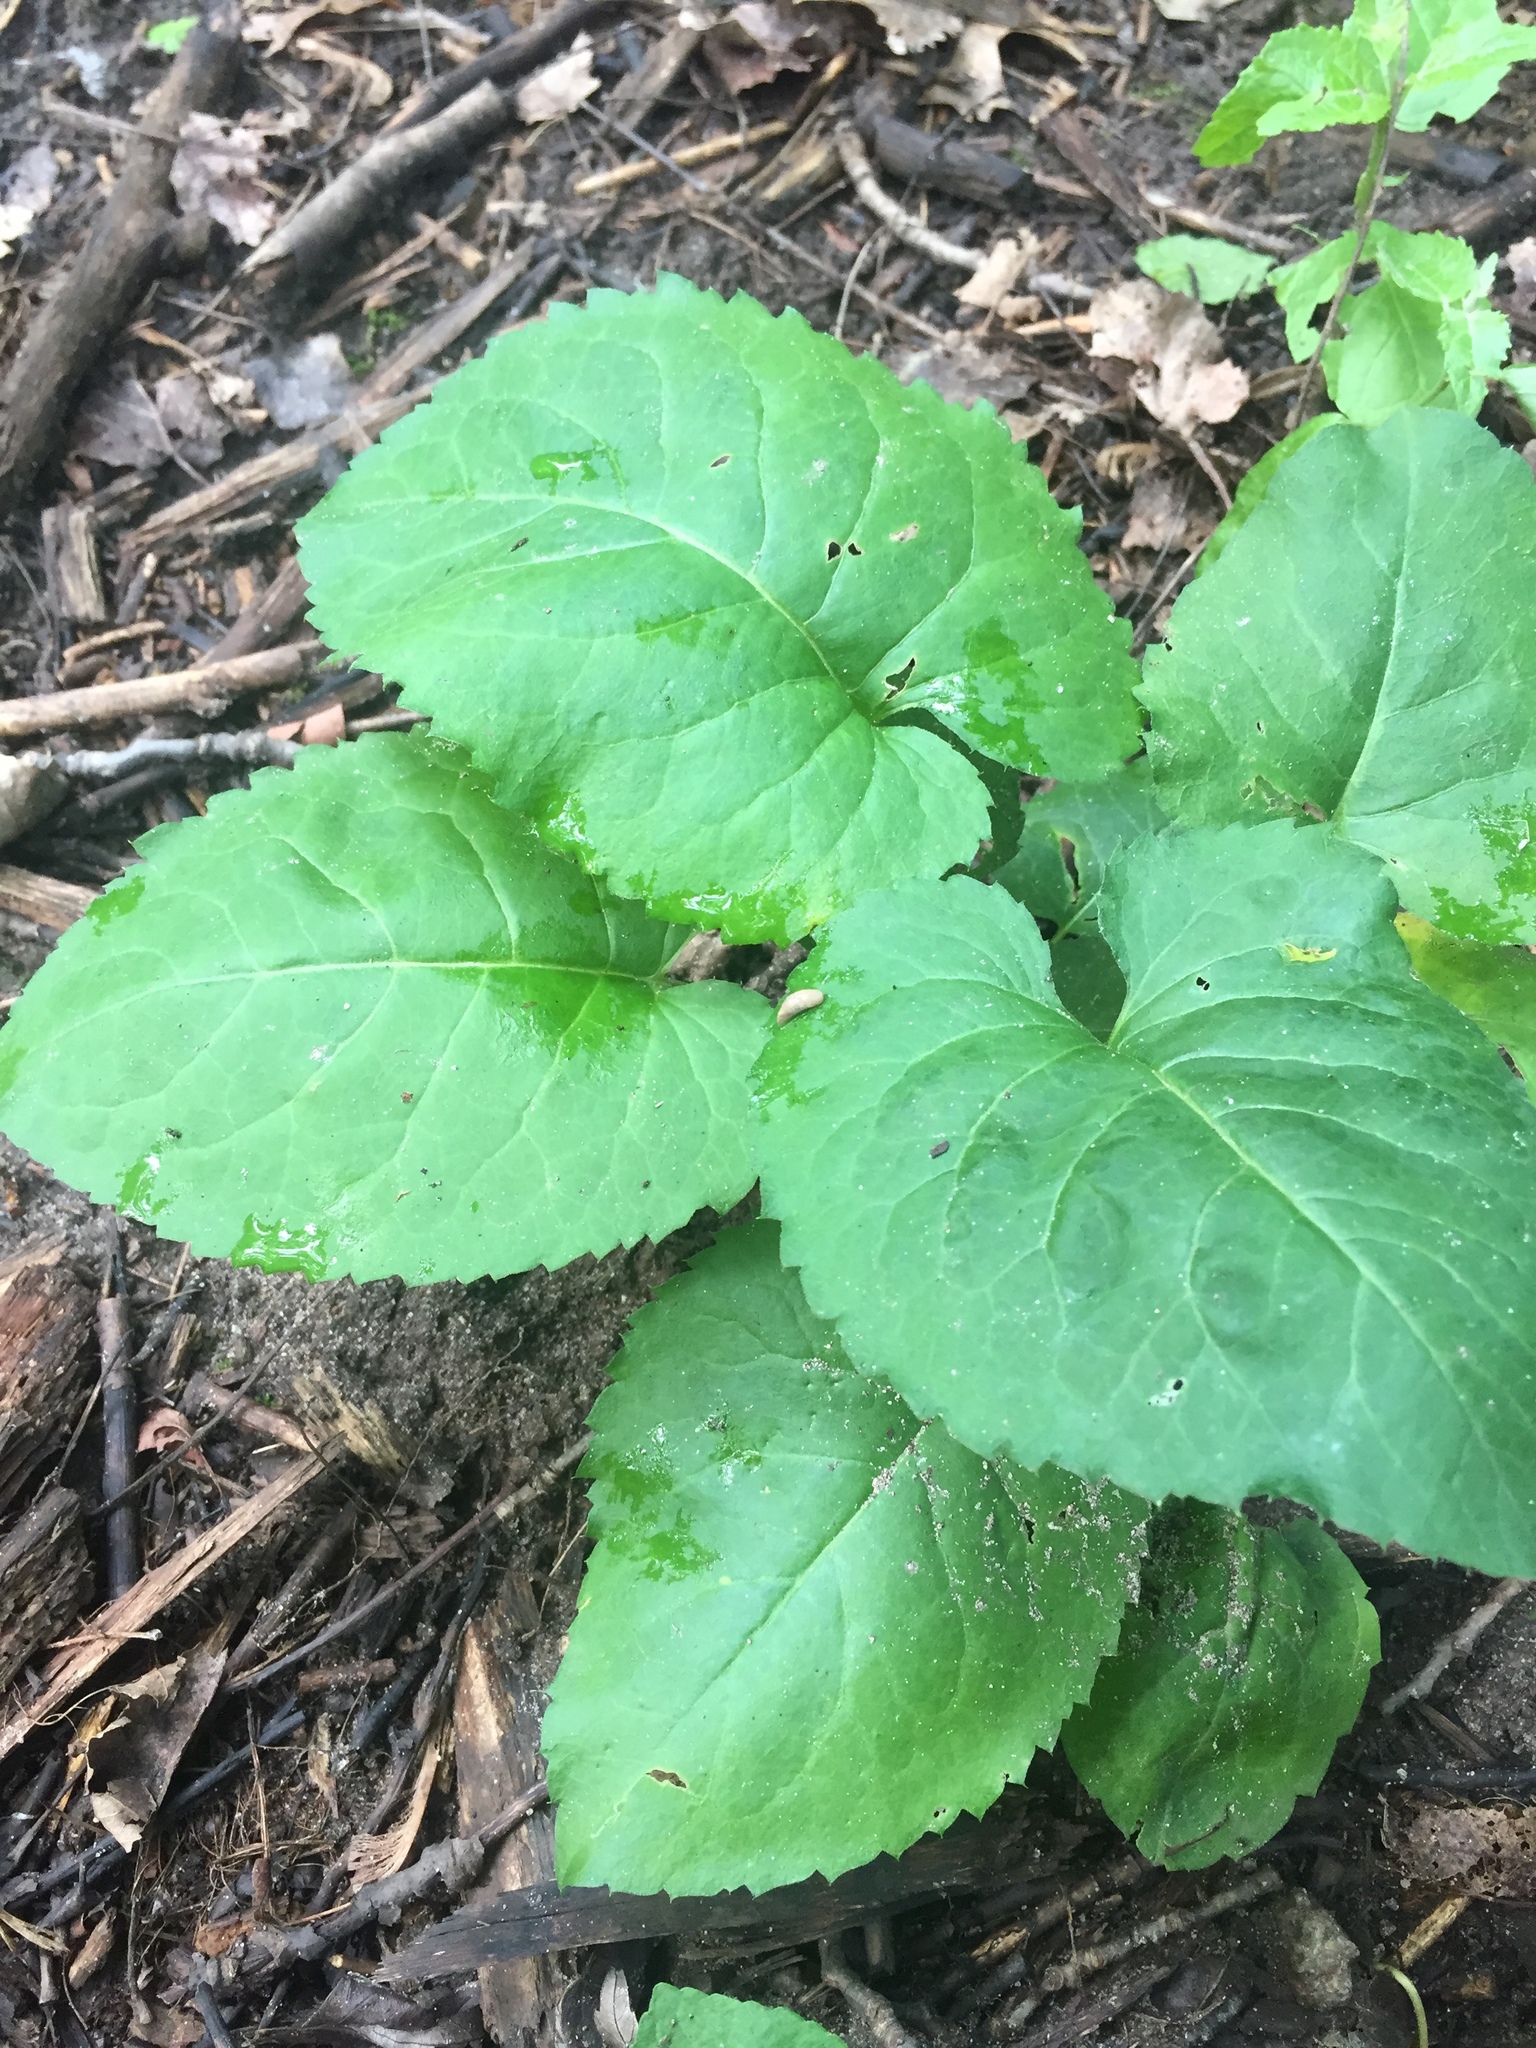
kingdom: Plantae
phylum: Tracheophyta
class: Magnoliopsida
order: Asterales
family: Asteraceae
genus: Eurybia
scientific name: Eurybia macrophylla
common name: Big-leaved aster
